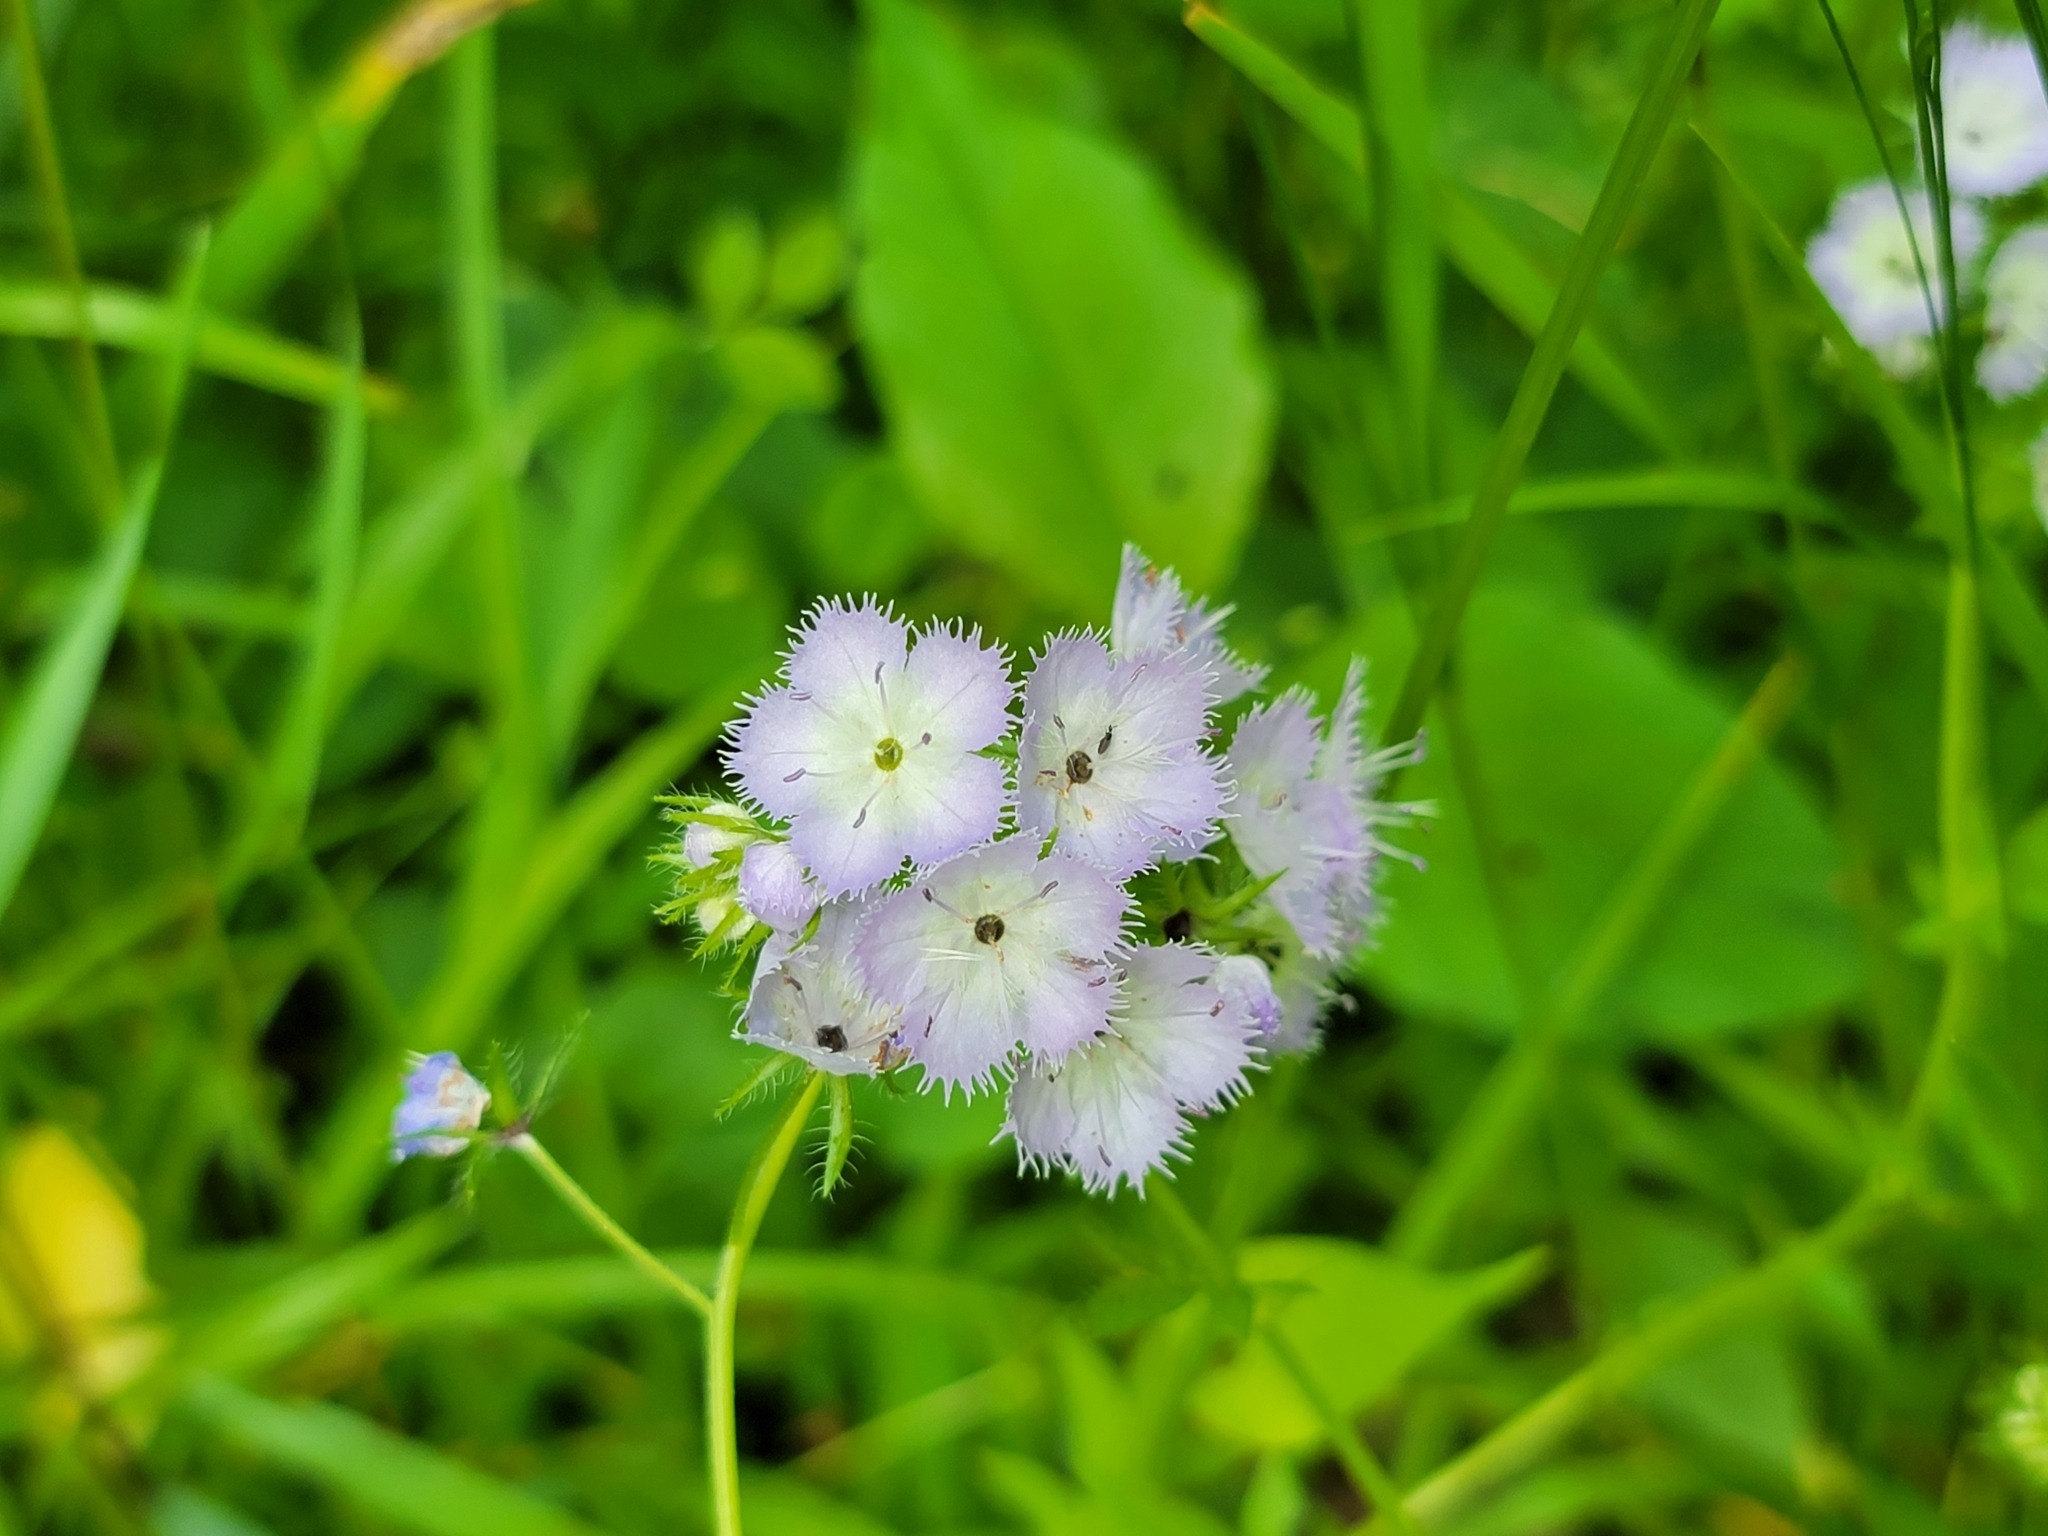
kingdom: Plantae
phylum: Tracheophyta
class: Magnoliopsida
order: Boraginales
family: Hydrophyllaceae
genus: Phacelia
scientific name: Phacelia purshii
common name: Miami-mist
